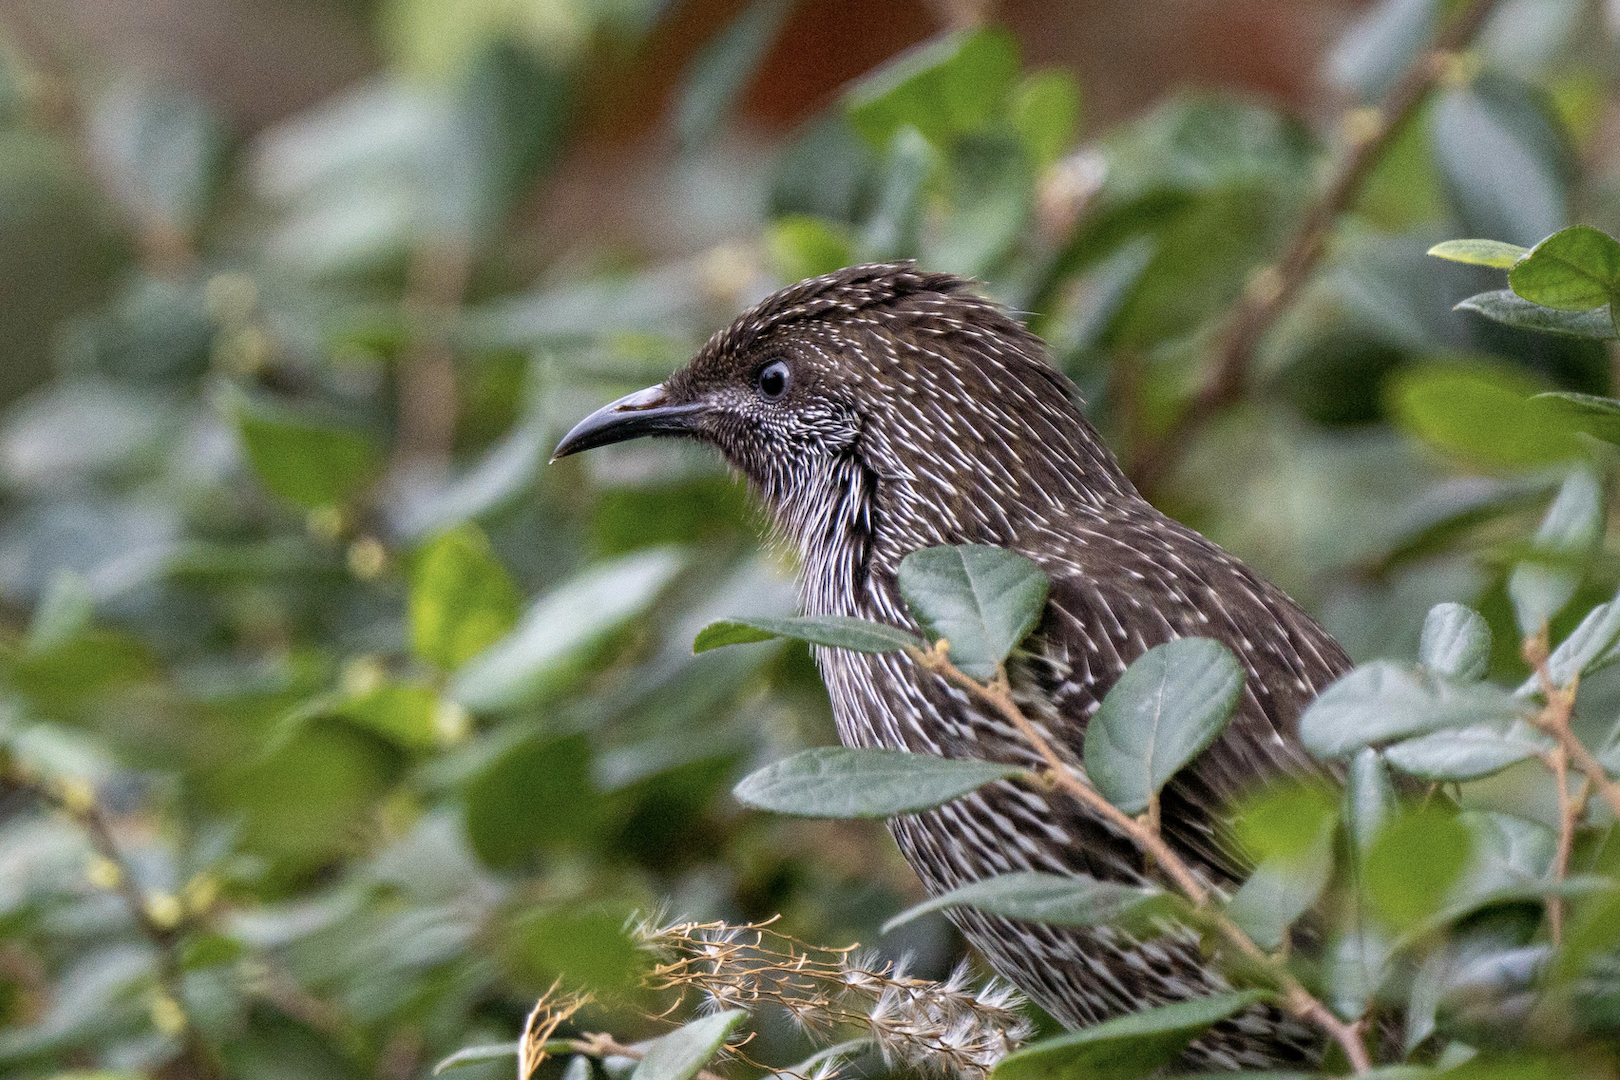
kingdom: Animalia
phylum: Chordata
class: Aves
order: Passeriformes
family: Meliphagidae
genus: Anthochaera
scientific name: Anthochaera chrysoptera
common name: Little wattlebird
